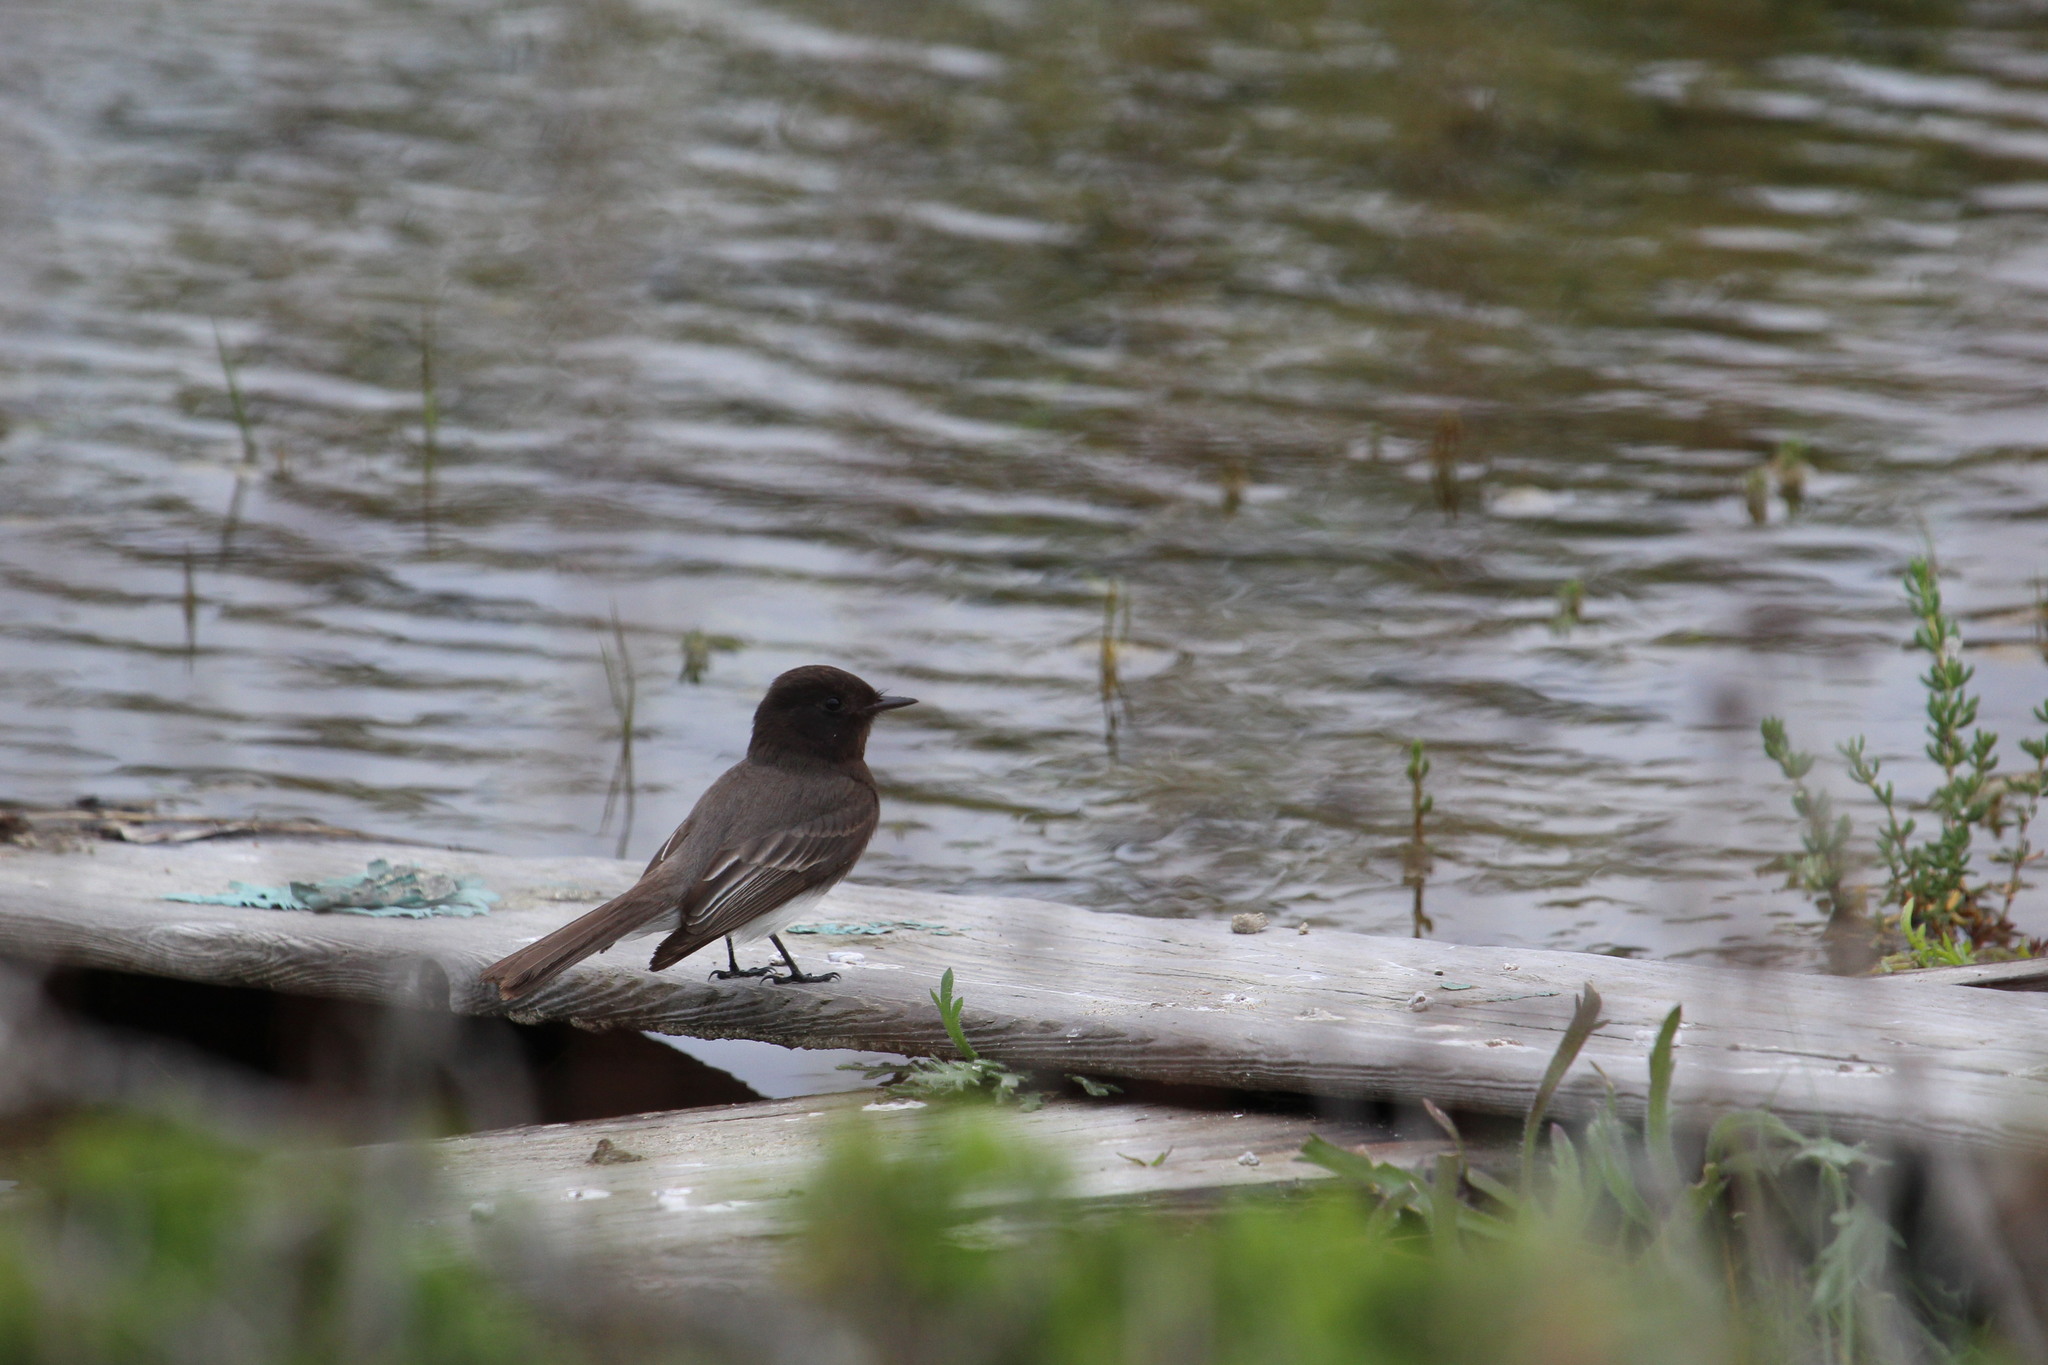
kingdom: Animalia
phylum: Chordata
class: Aves
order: Passeriformes
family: Tyrannidae
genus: Sayornis
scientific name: Sayornis nigricans
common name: Black phoebe
